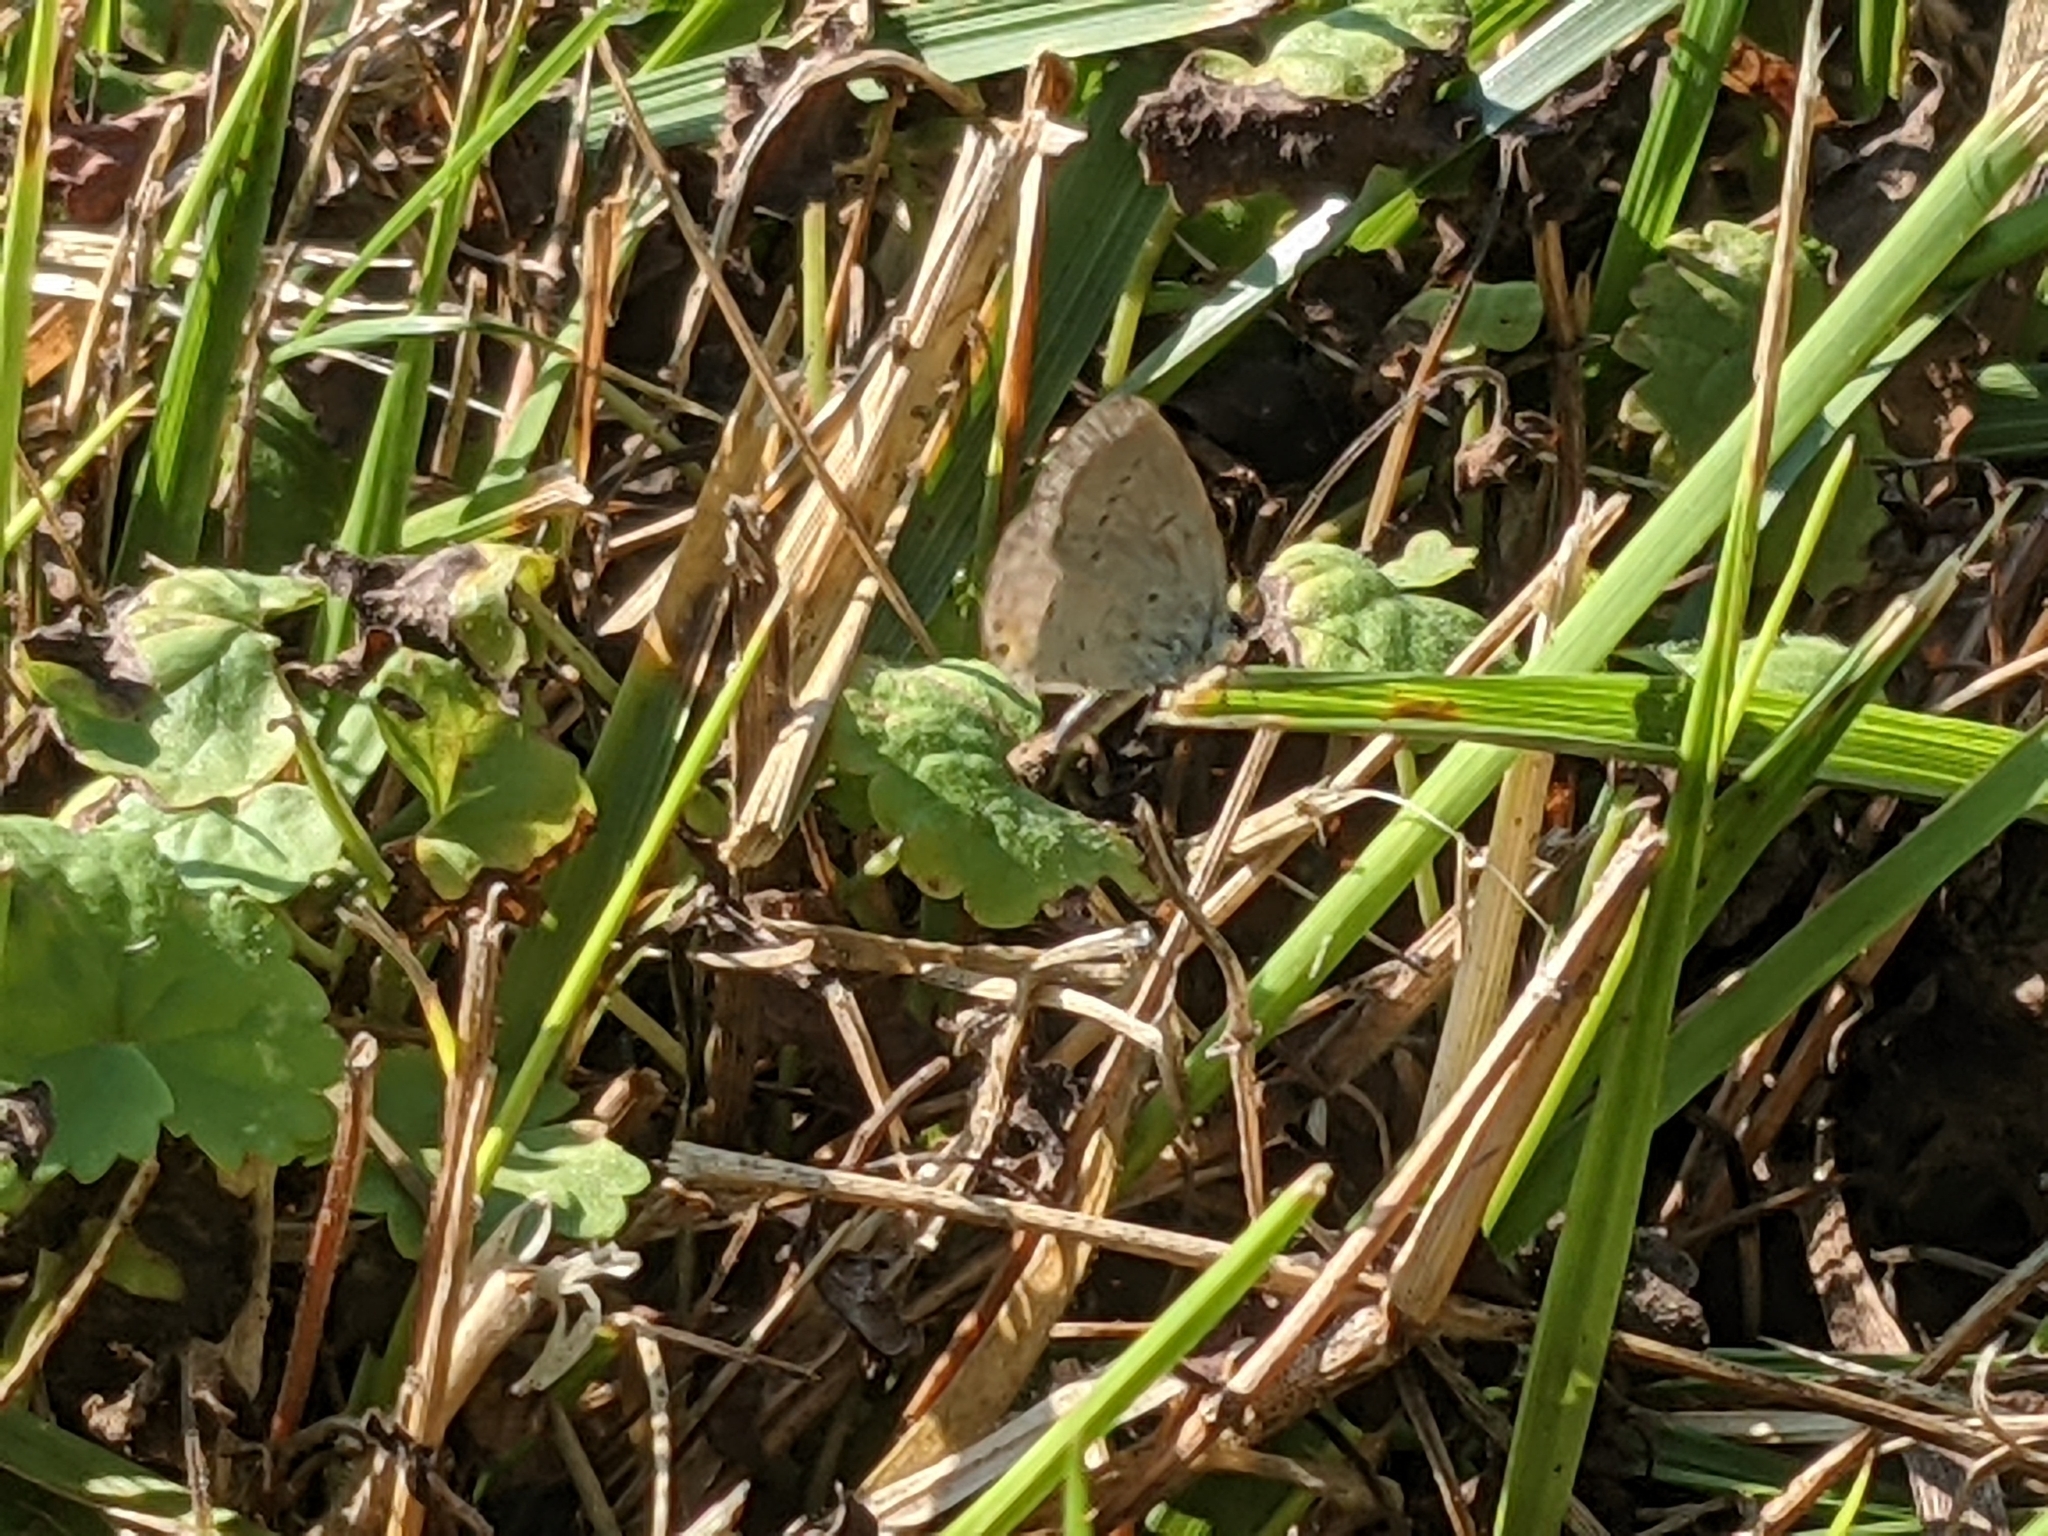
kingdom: Animalia
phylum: Arthropoda
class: Insecta
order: Lepidoptera
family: Lycaenidae
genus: Elkalyce
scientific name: Elkalyce comyntas
